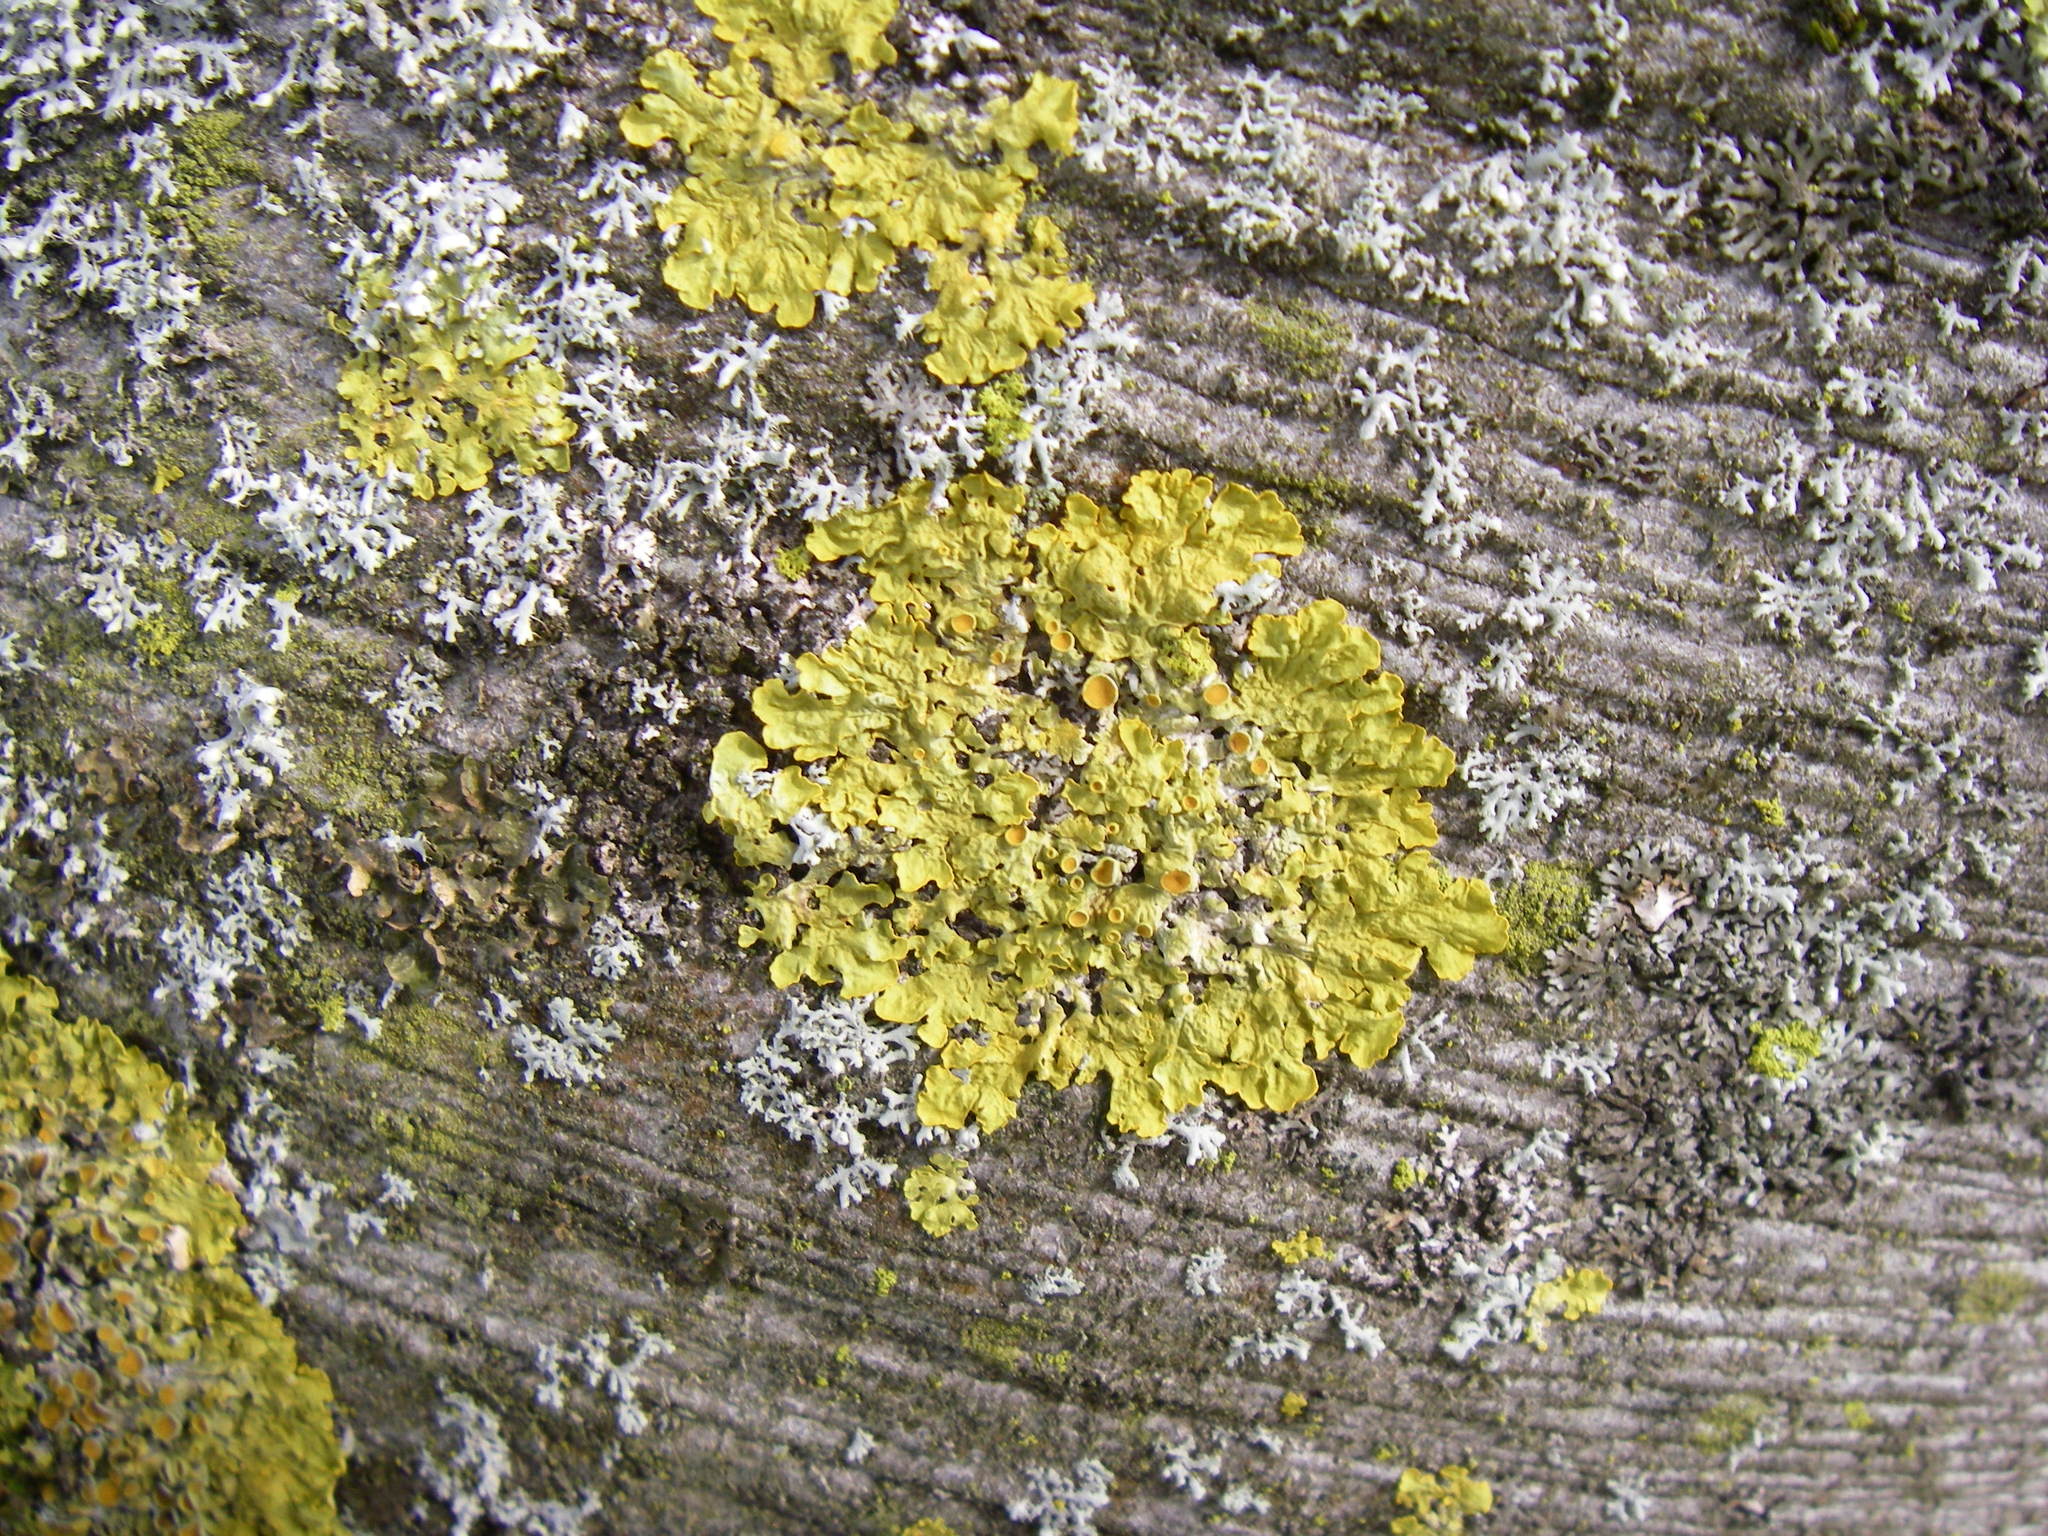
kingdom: Fungi
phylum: Ascomycota
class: Lecanoromycetes
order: Teloschistales
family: Teloschistaceae
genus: Xanthoria
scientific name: Xanthoria parietina
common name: Common orange lichen
